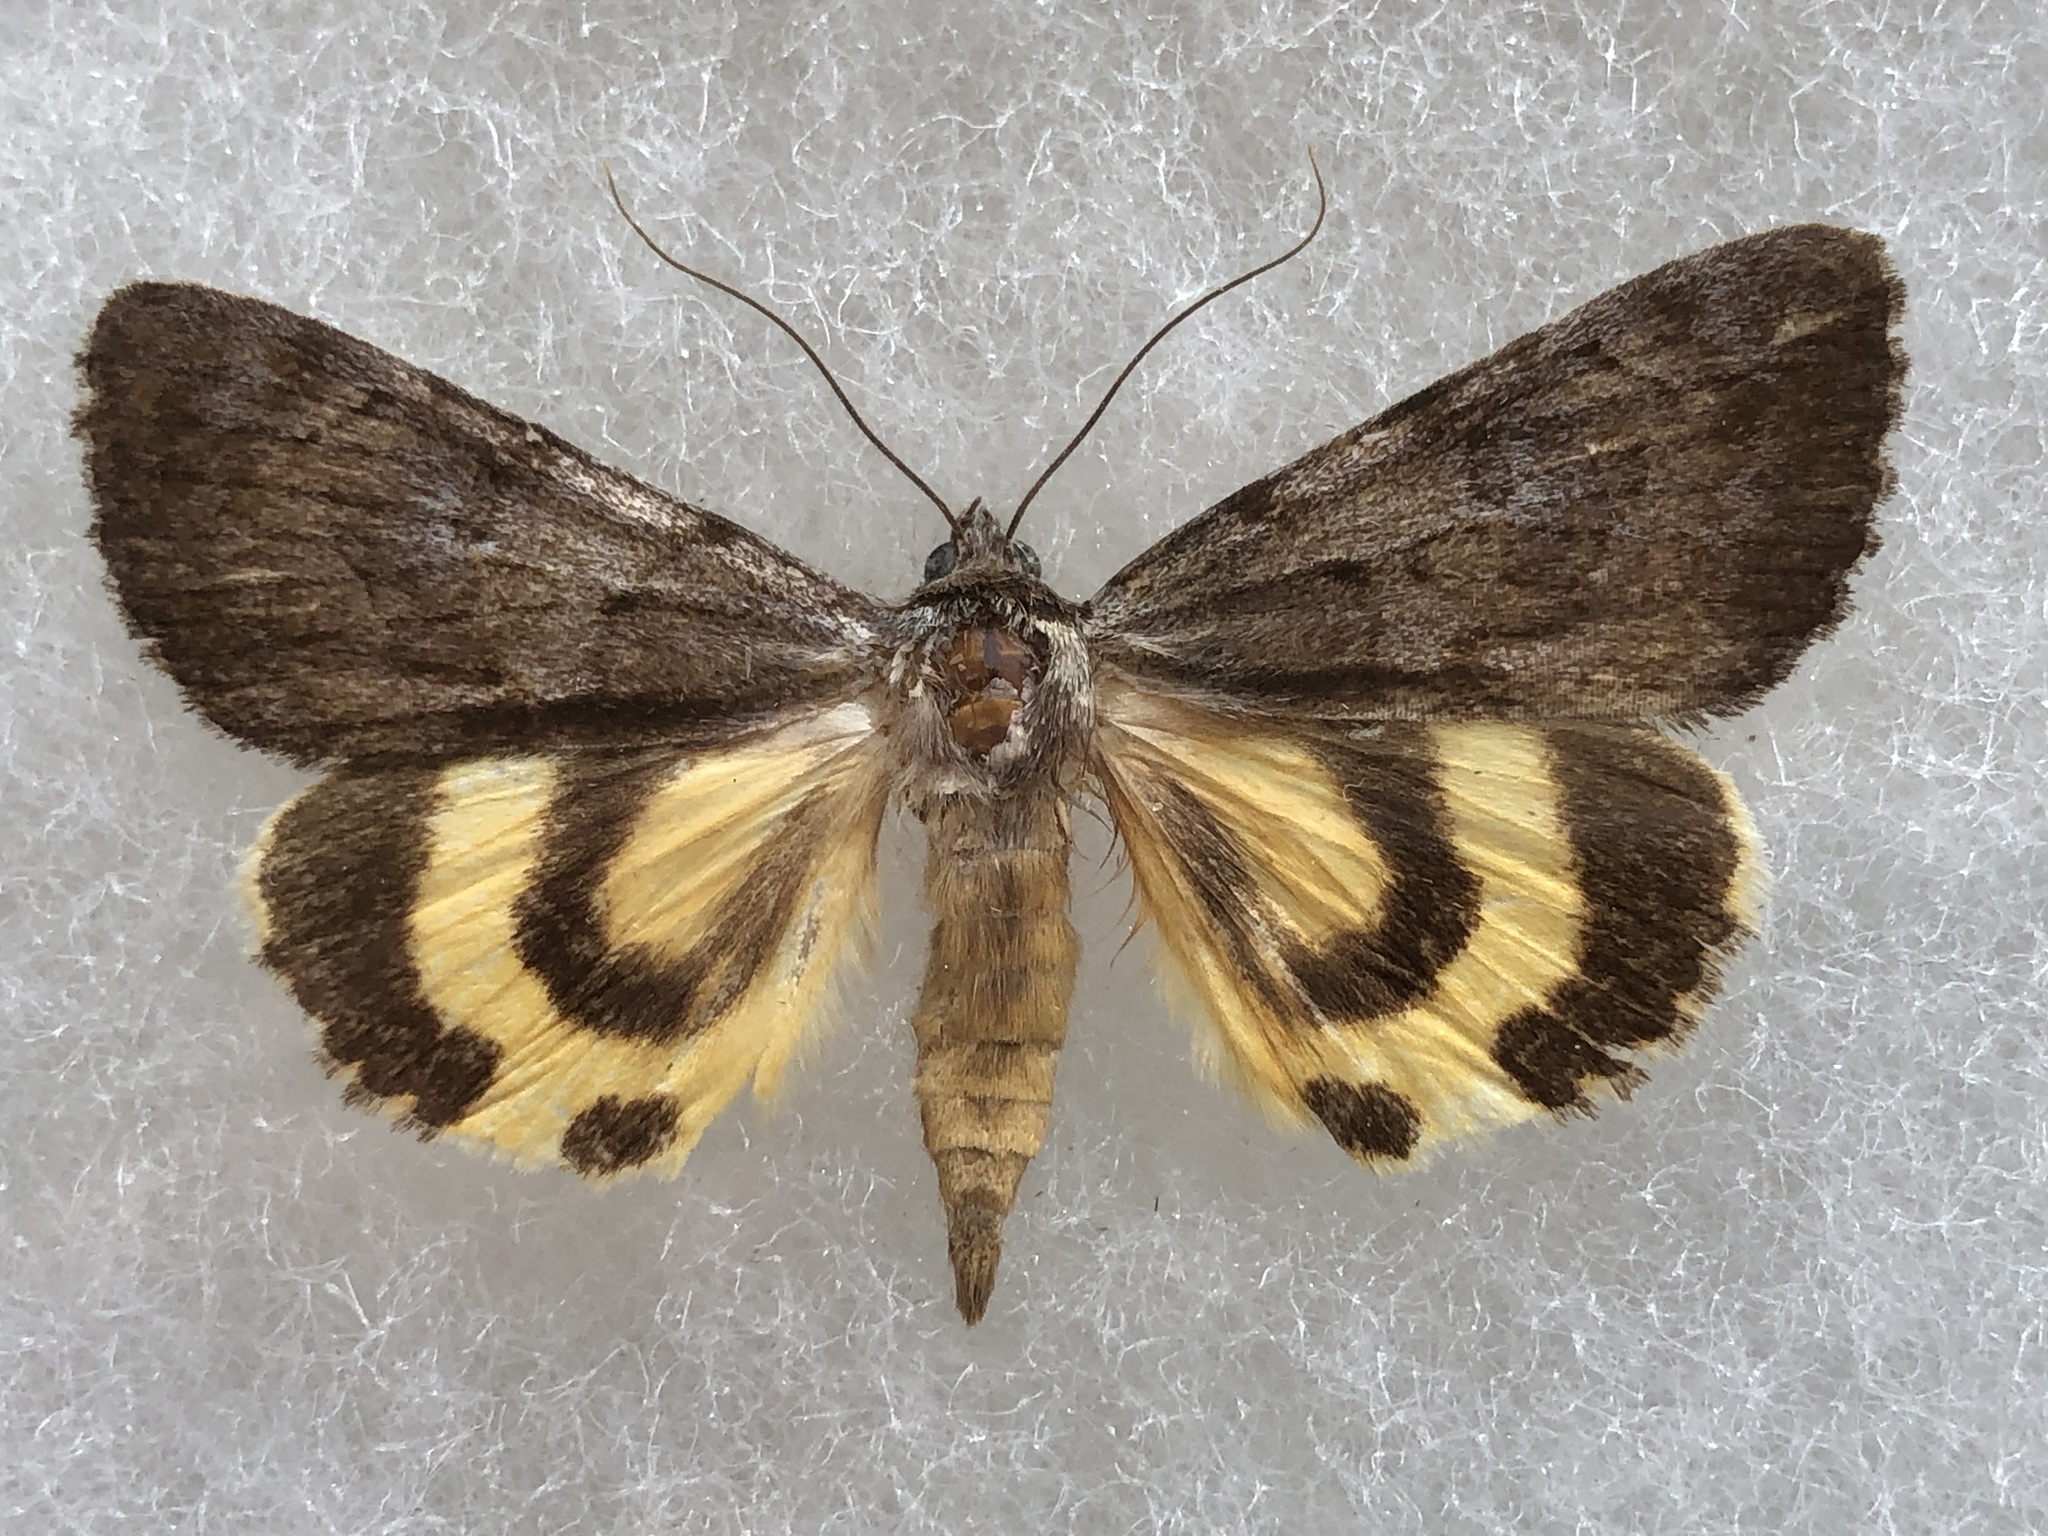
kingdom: Animalia
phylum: Arthropoda
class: Insecta
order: Lepidoptera
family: Erebidae
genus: Catocala
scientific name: Catocala sordida
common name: Sordid underwing
